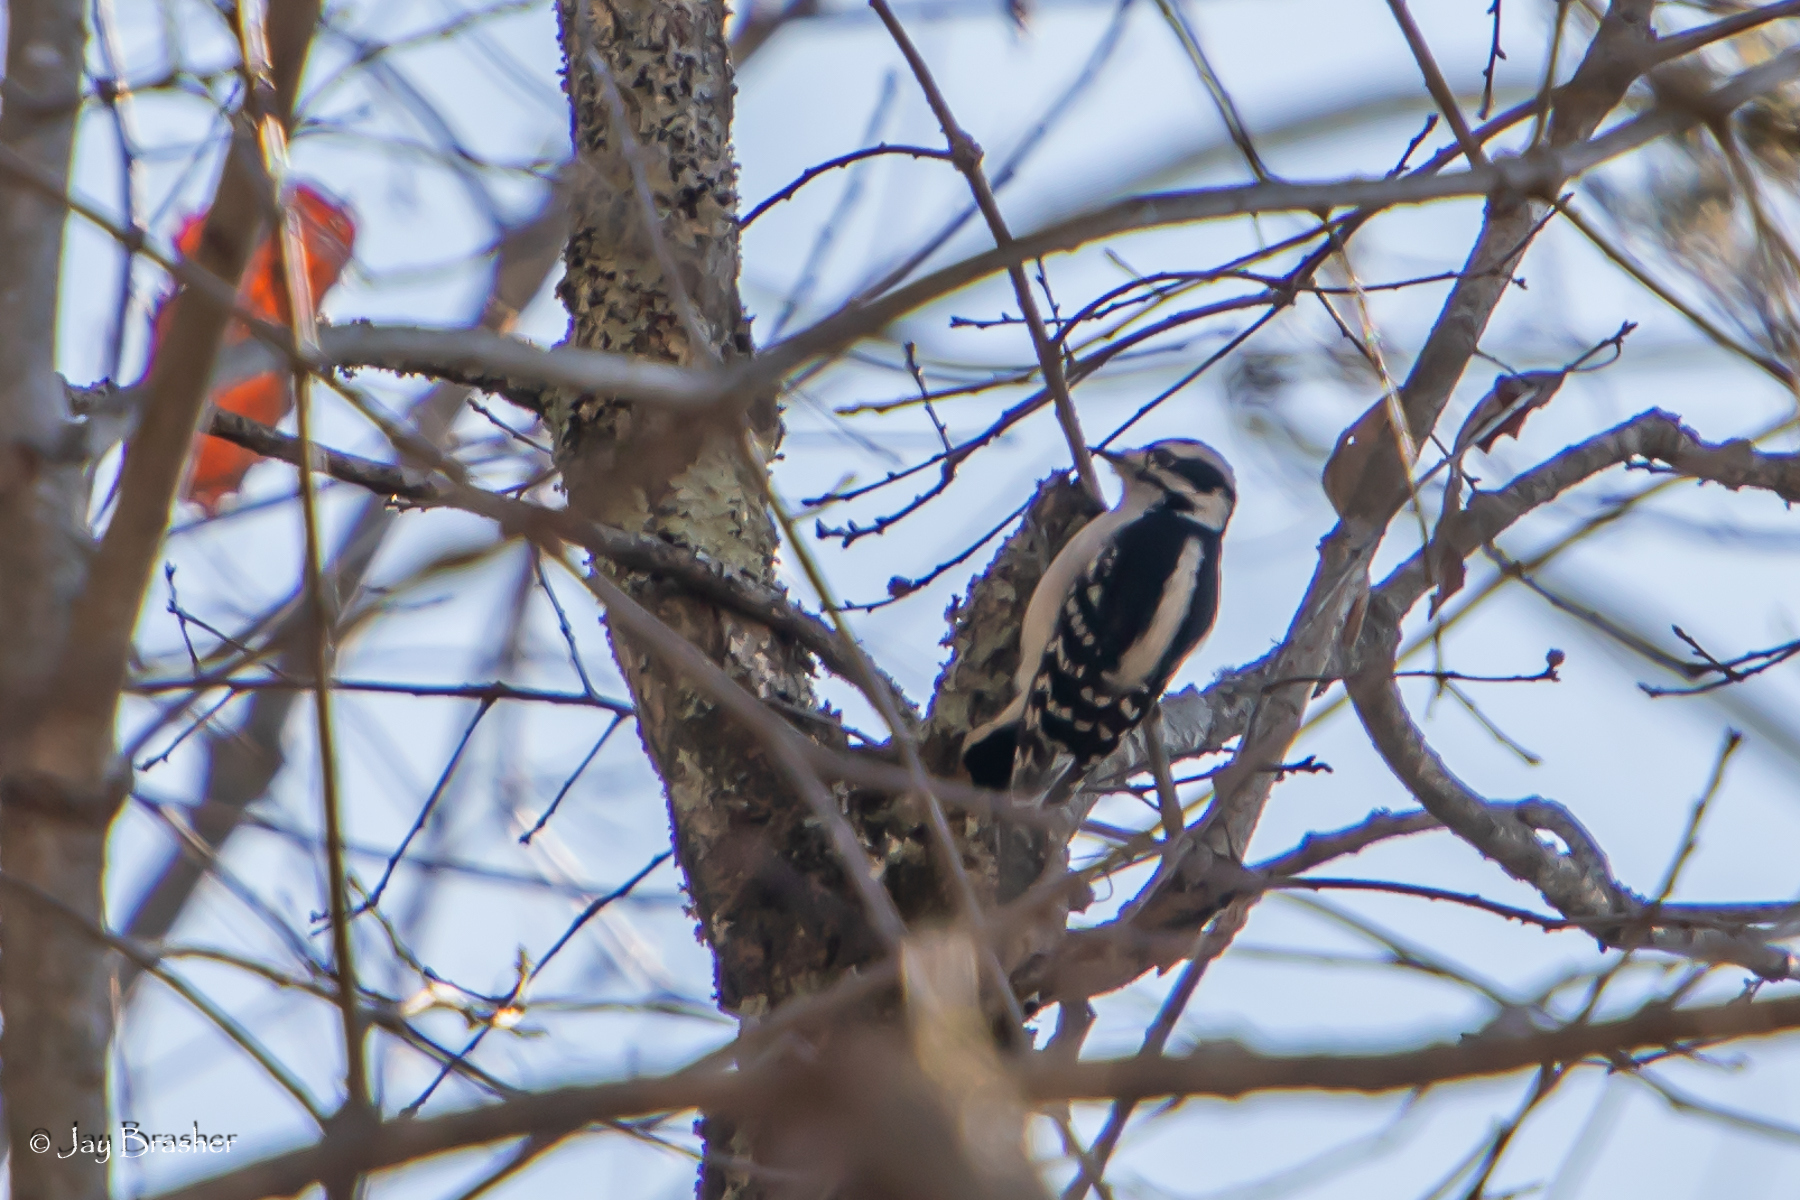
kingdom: Animalia
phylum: Chordata
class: Aves
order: Piciformes
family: Picidae
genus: Dryobates
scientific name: Dryobates pubescens
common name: Downy woodpecker
